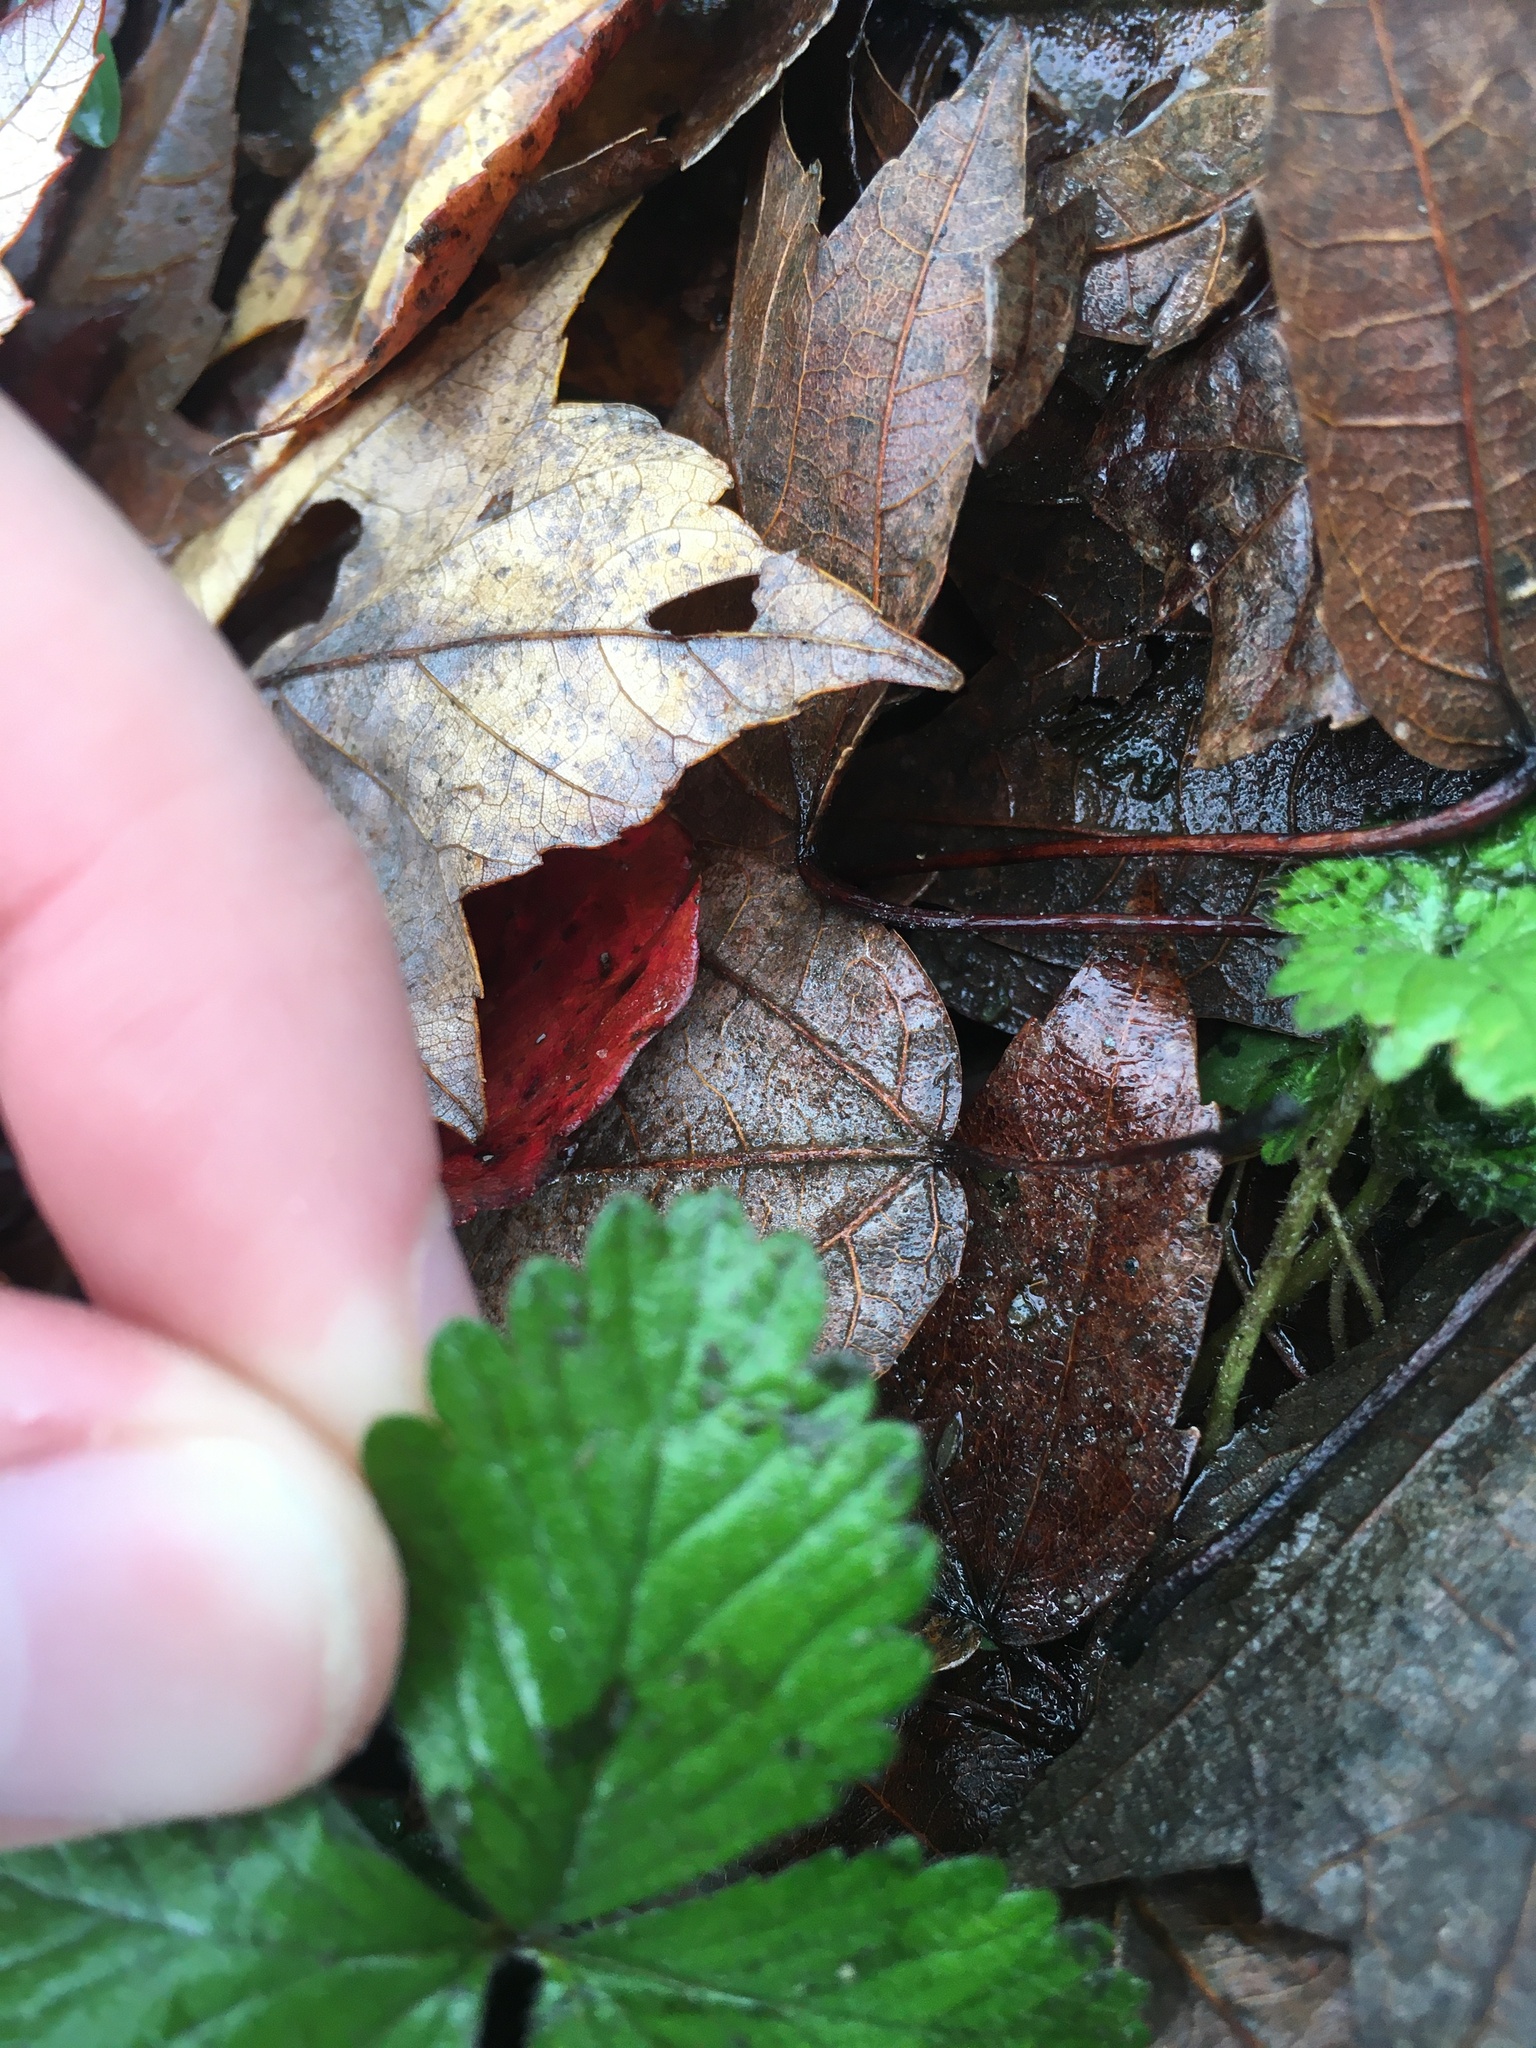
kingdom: Plantae
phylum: Tracheophyta
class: Magnoliopsida
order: Rosales
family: Rosaceae
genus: Potentilla
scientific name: Potentilla indica
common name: Yellow-flowered strawberry
